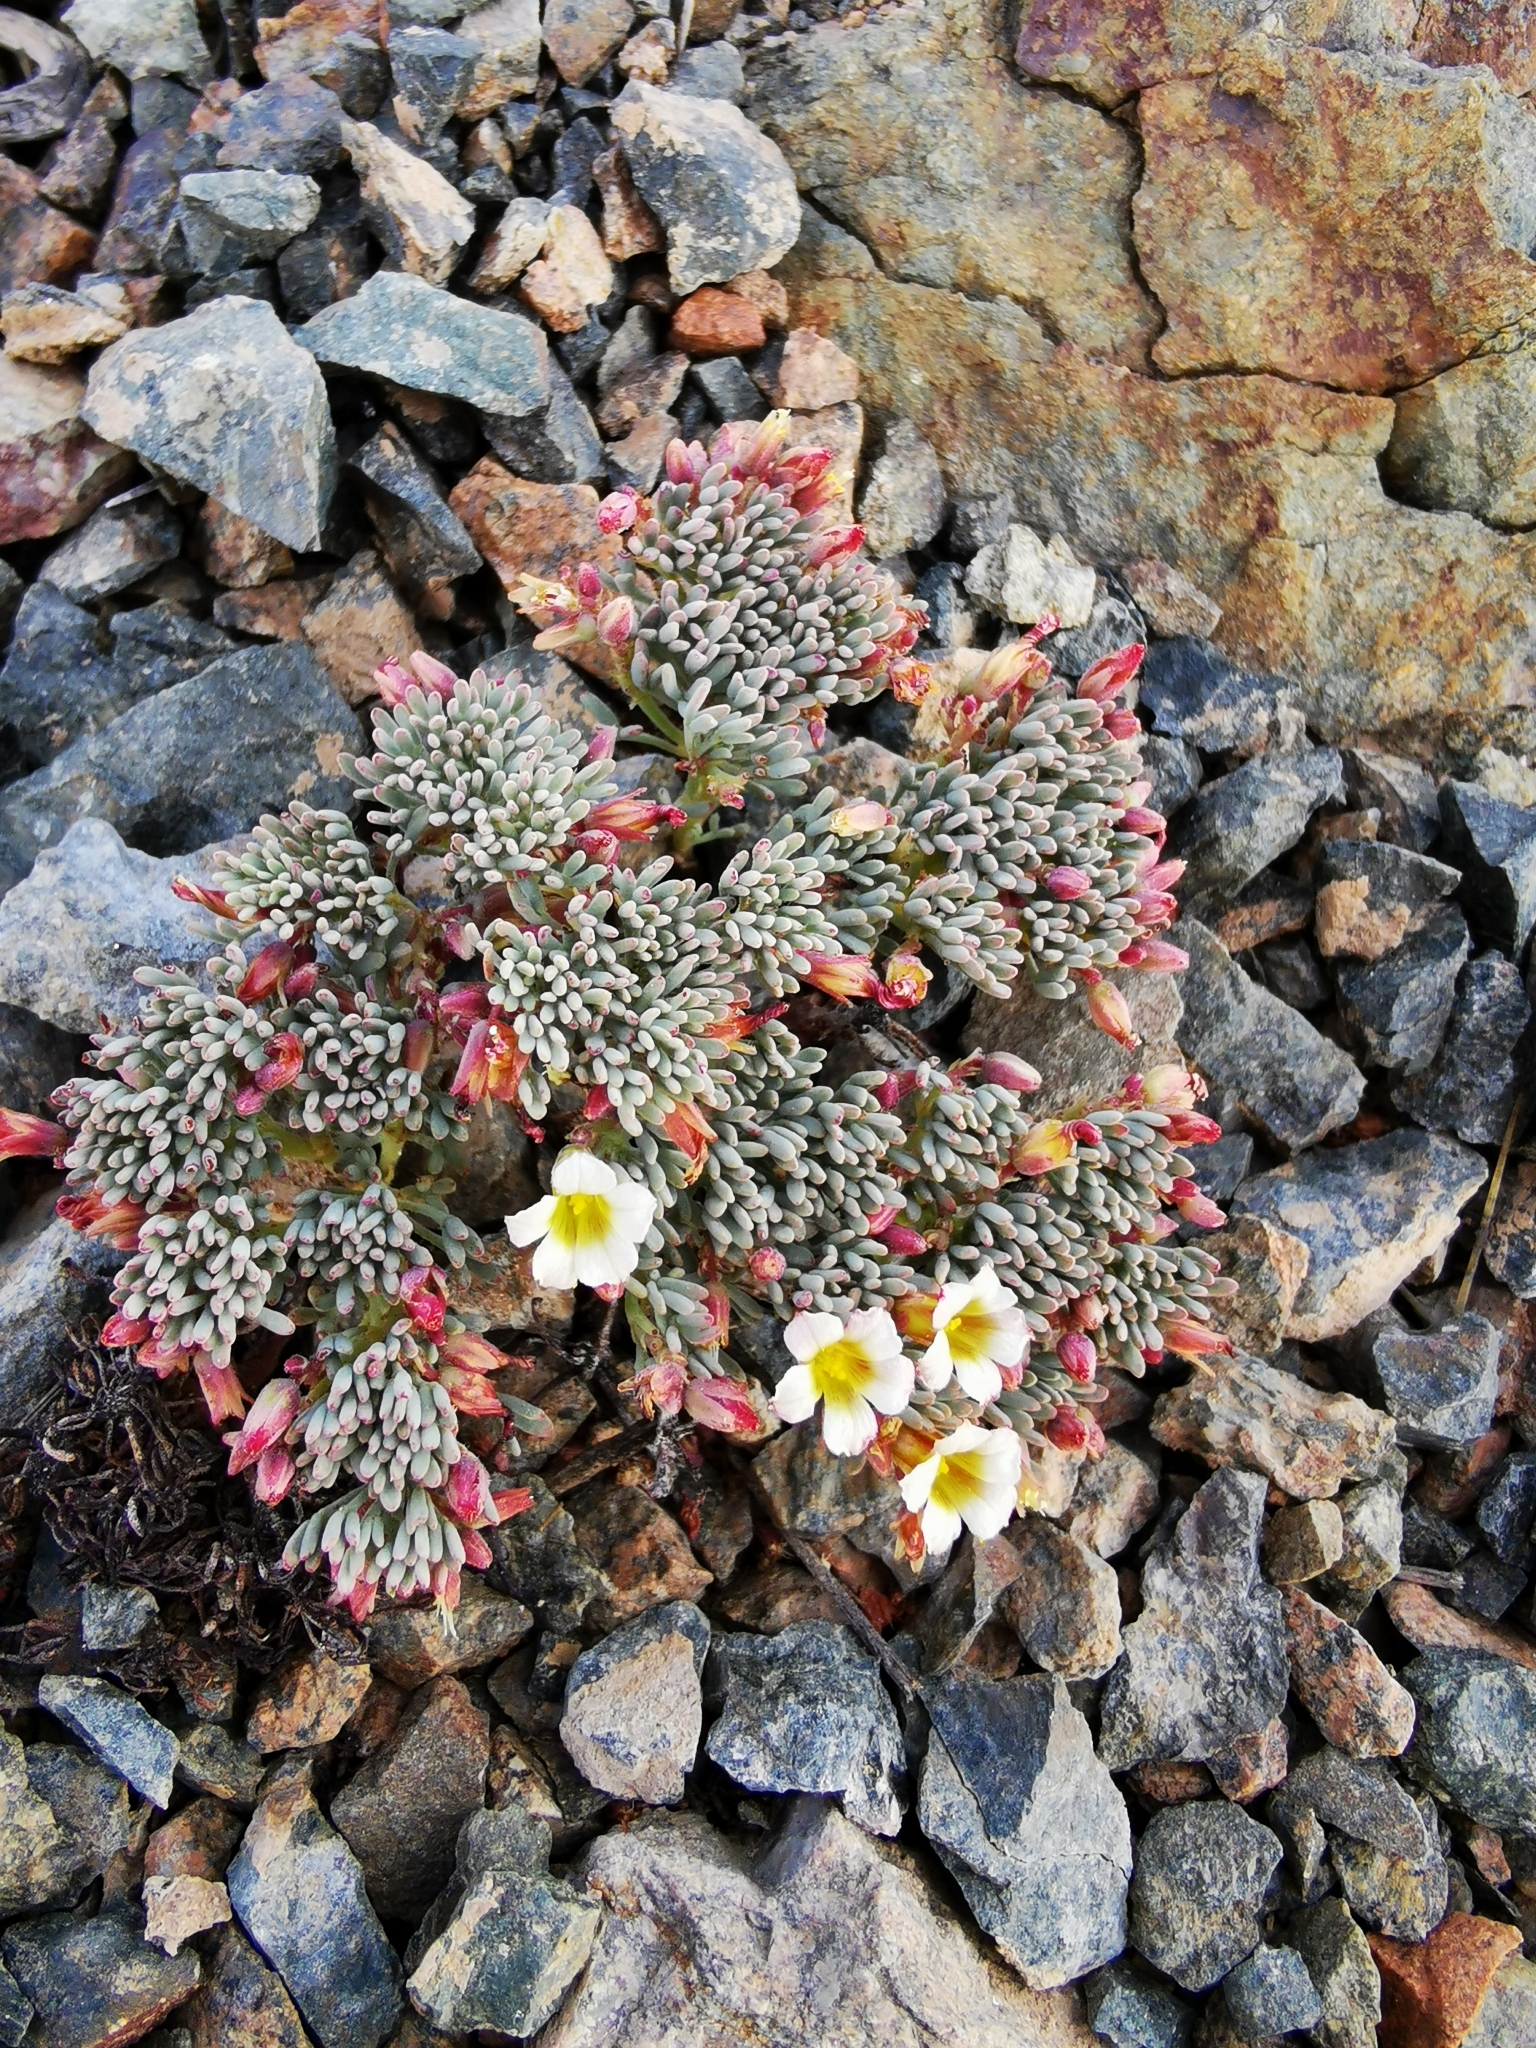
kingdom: Plantae
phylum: Tracheophyta
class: Magnoliopsida
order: Oxalidales
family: Oxalidaceae
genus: Oxalis
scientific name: Oxalis caesia
